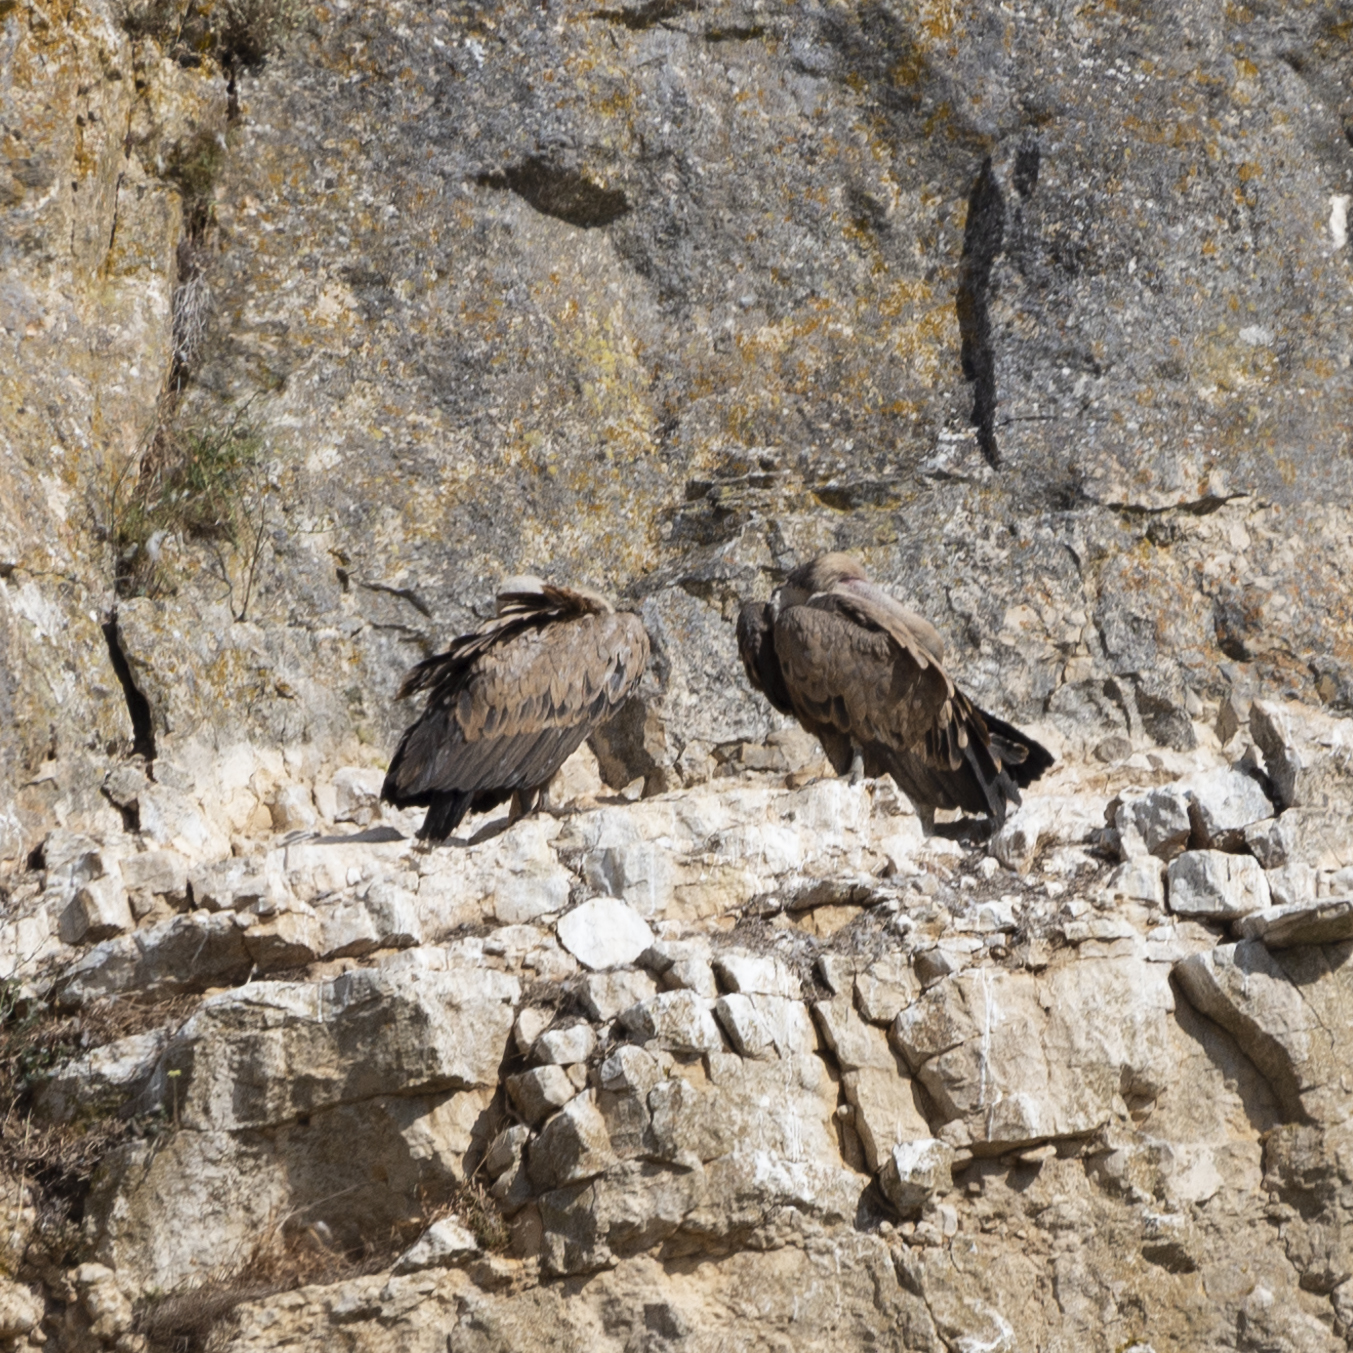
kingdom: Animalia
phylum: Chordata
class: Aves
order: Accipitriformes
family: Accipitridae
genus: Gyps
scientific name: Gyps fulvus
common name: Griffon vulture
